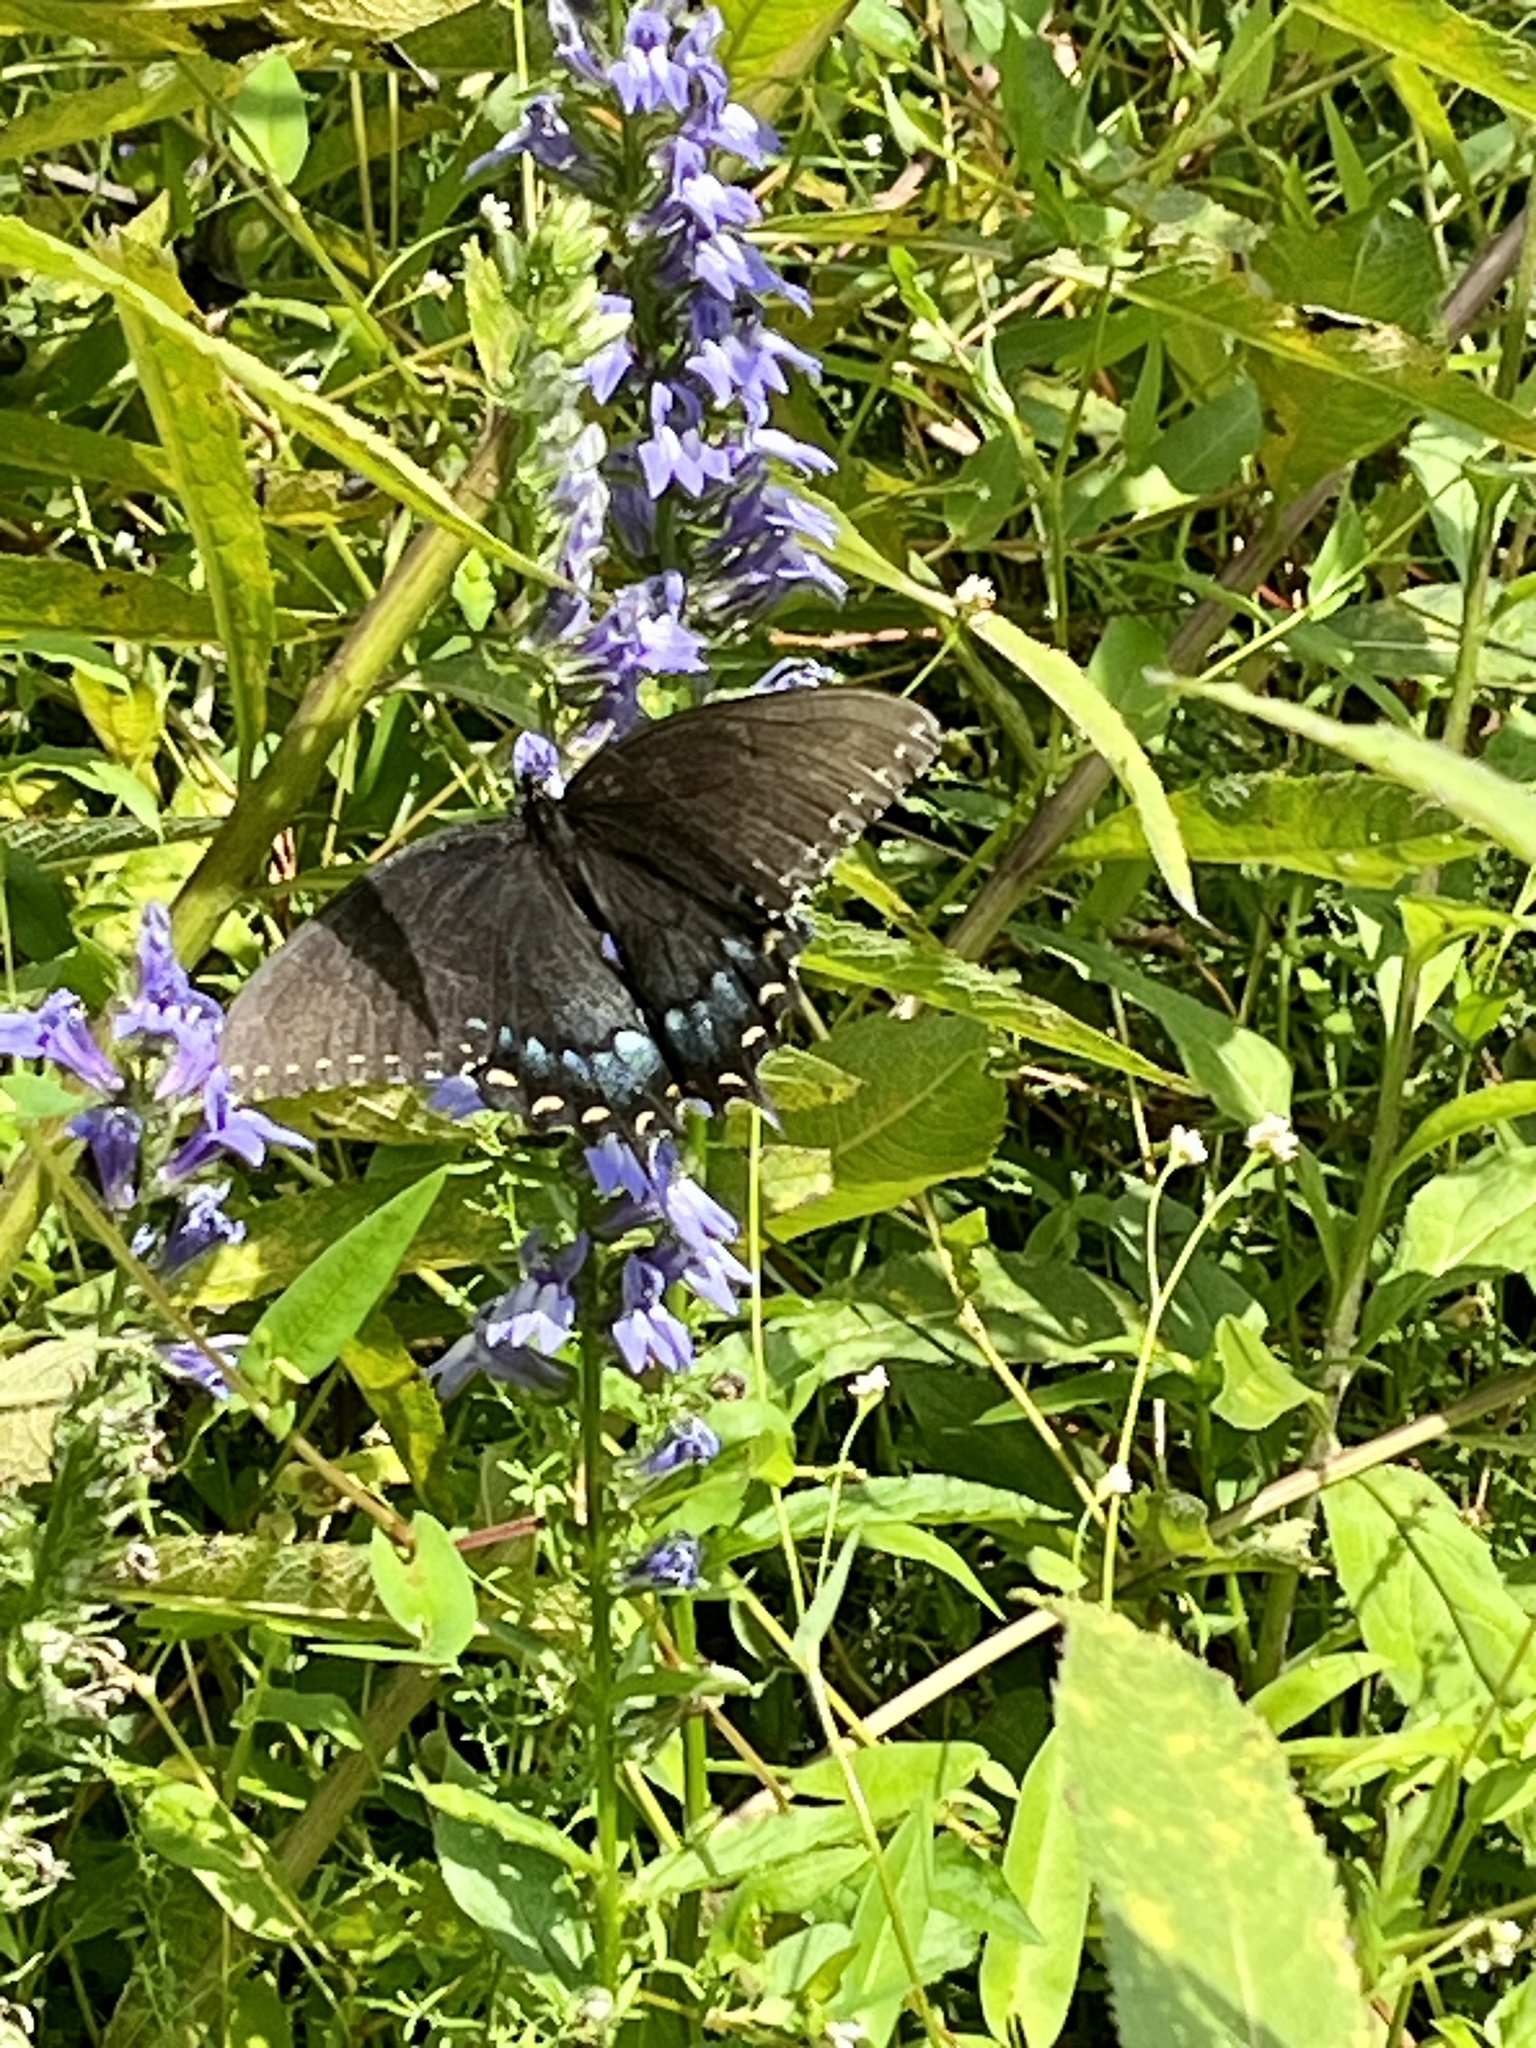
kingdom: Animalia
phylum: Arthropoda
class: Insecta
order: Lepidoptera
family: Papilionidae
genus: Papilio
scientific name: Papilio glaucus
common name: Tiger swallowtail
